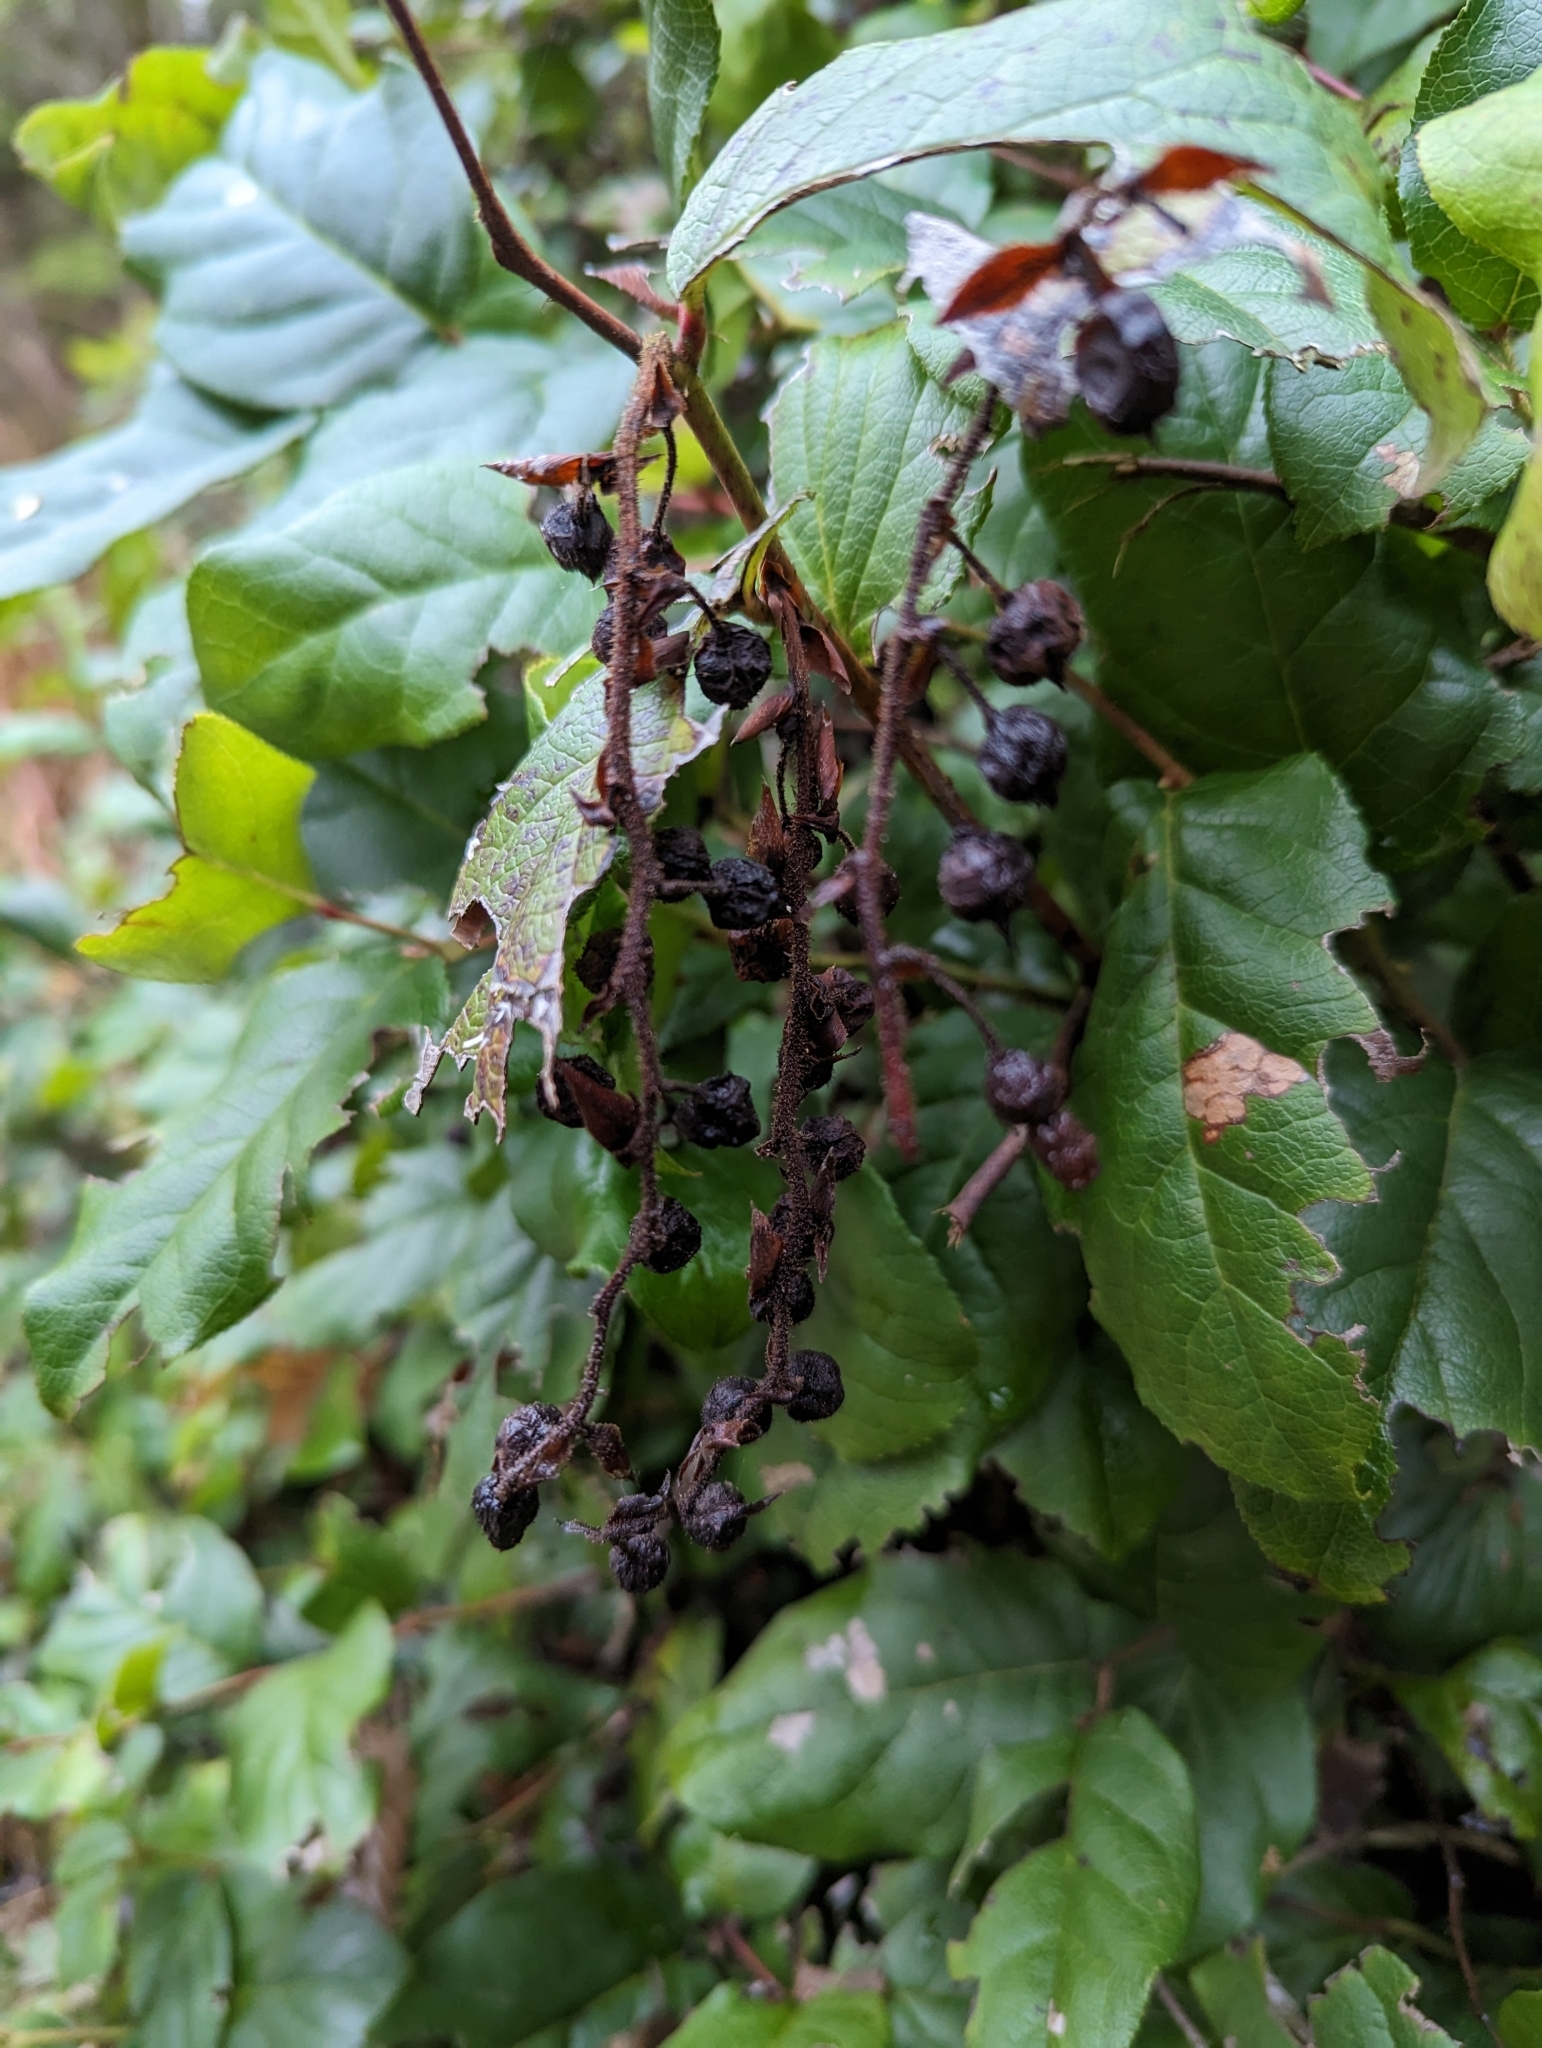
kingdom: Plantae
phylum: Tracheophyta
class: Magnoliopsida
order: Ericales
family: Ericaceae
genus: Gaultheria
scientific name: Gaultheria shallon
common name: Shallon
